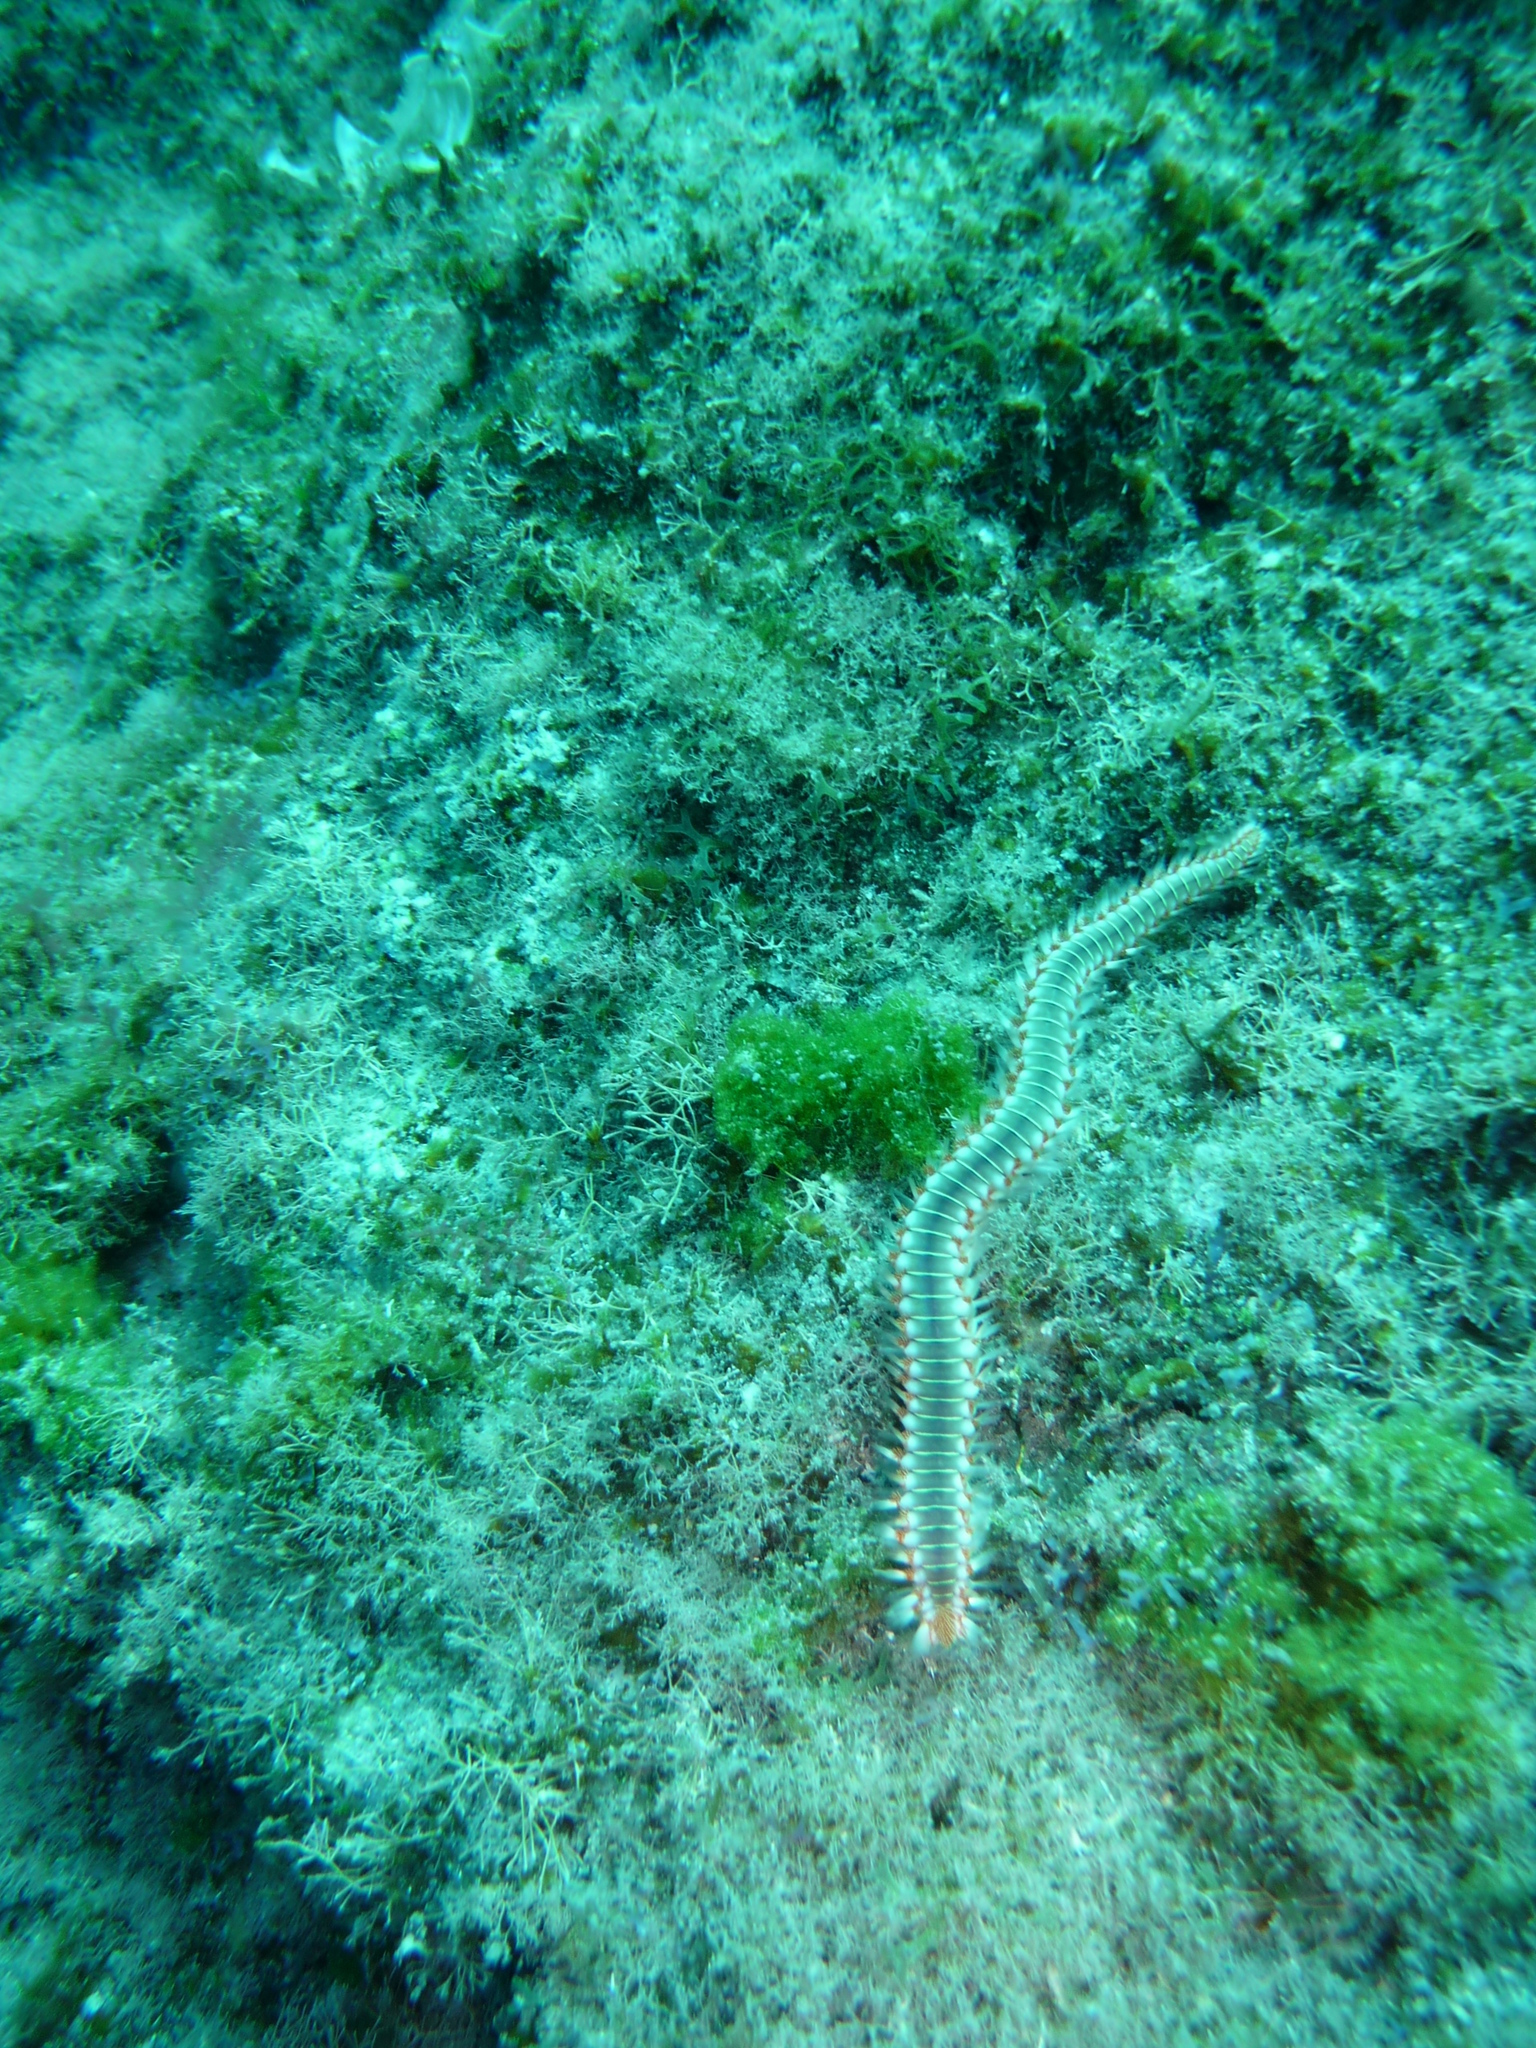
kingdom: Animalia
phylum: Annelida
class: Polychaeta
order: Amphinomida
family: Amphinomidae
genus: Hermodice
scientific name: Hermodice carunculata
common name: Bearded fireworm
